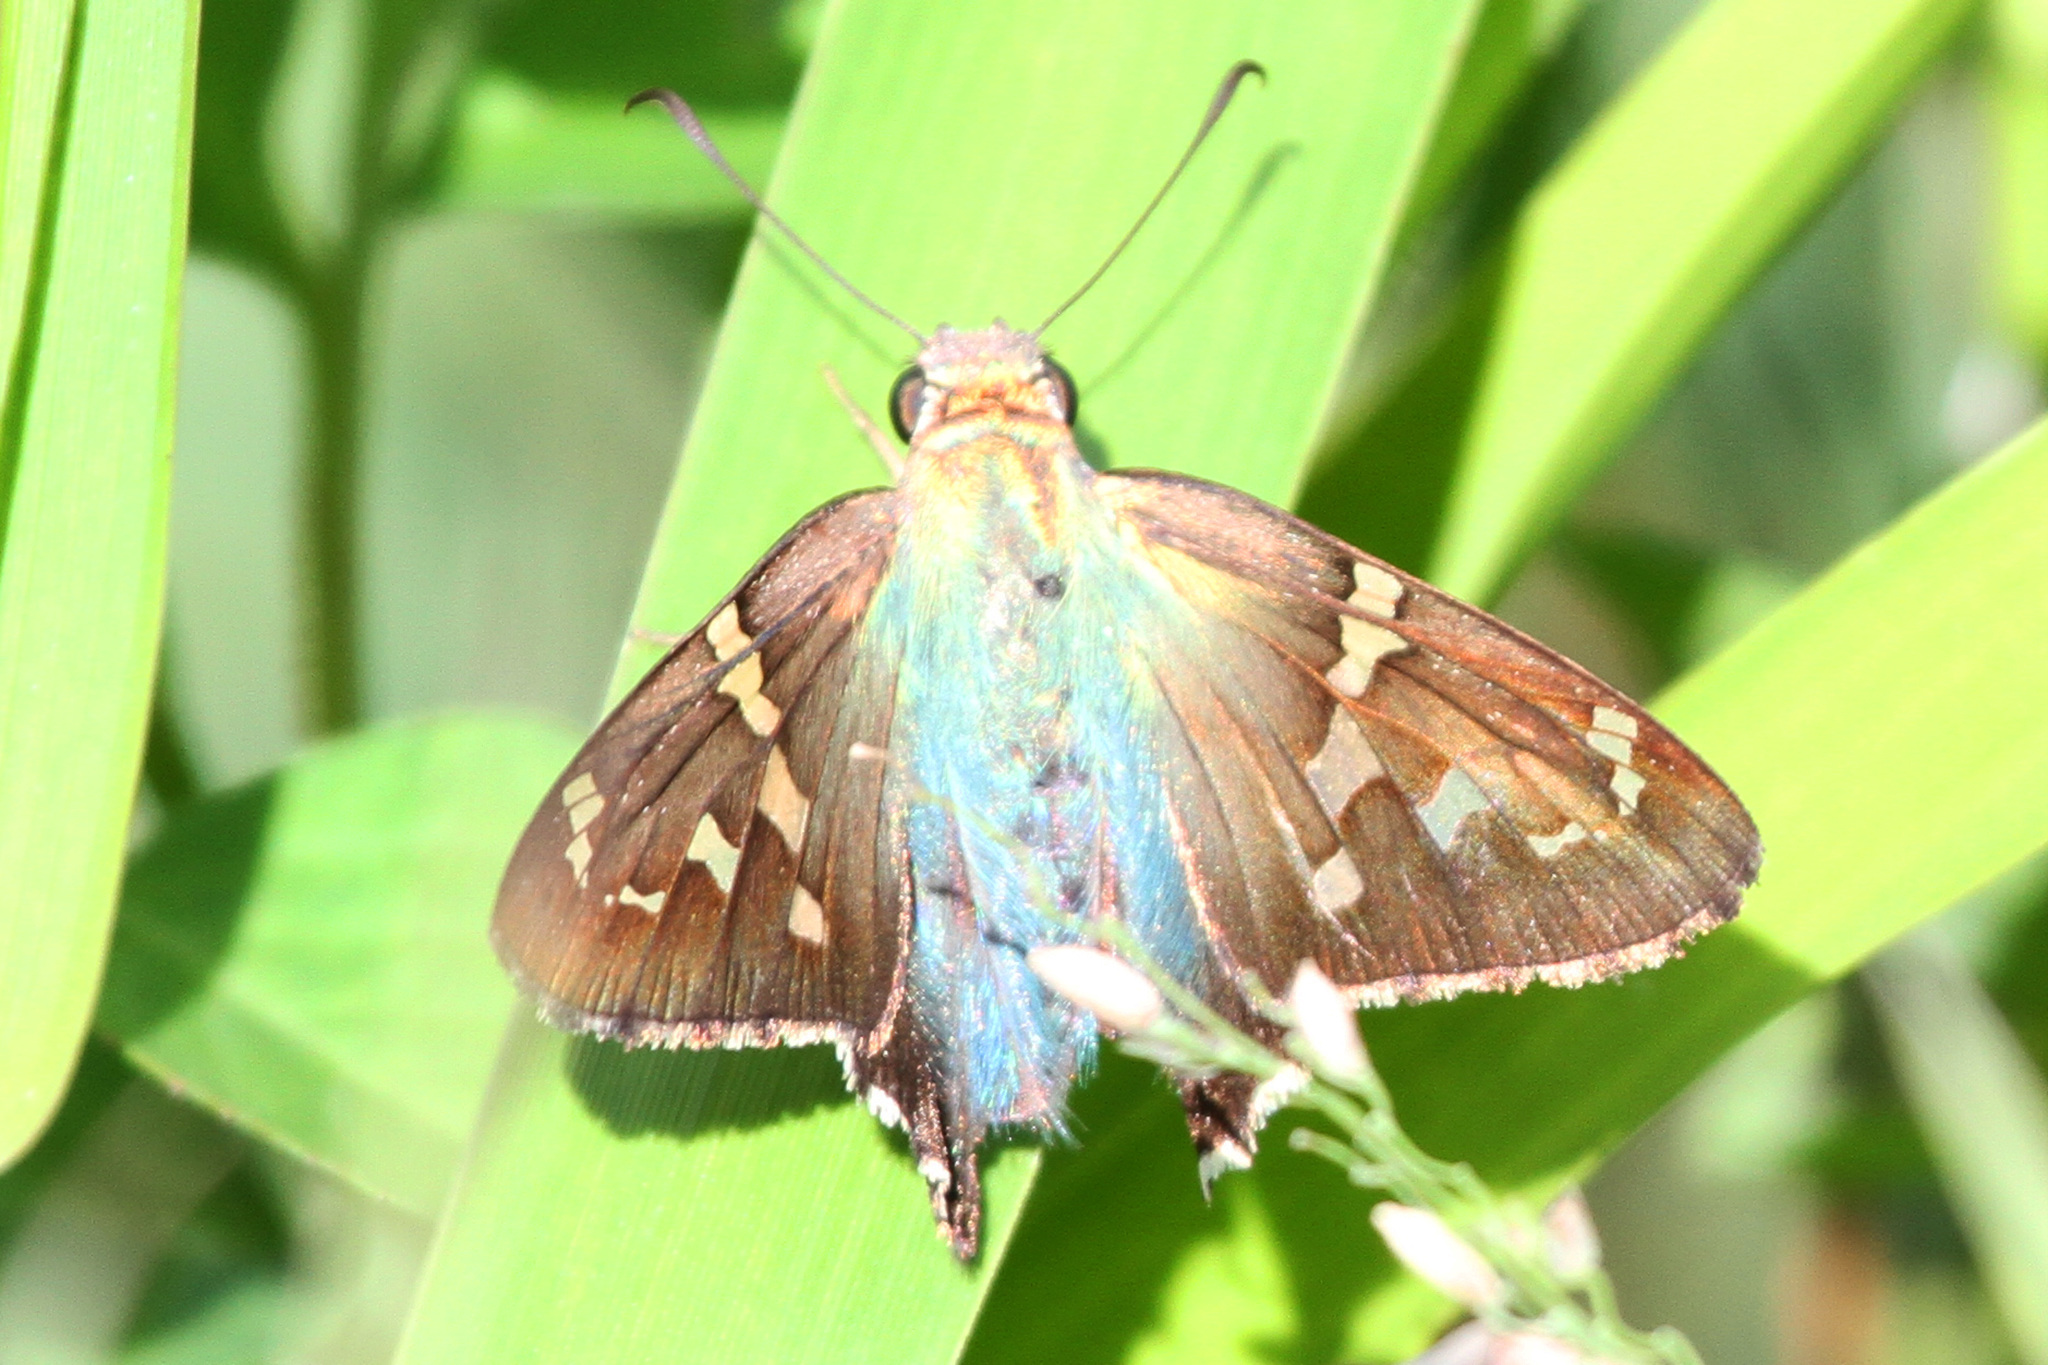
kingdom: Animalia
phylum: Arthropoda
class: Insecta
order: Lepidoptera
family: Hesperiidae
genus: Urbanus
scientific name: Urbanus proteus
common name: Long-tailed skipper
